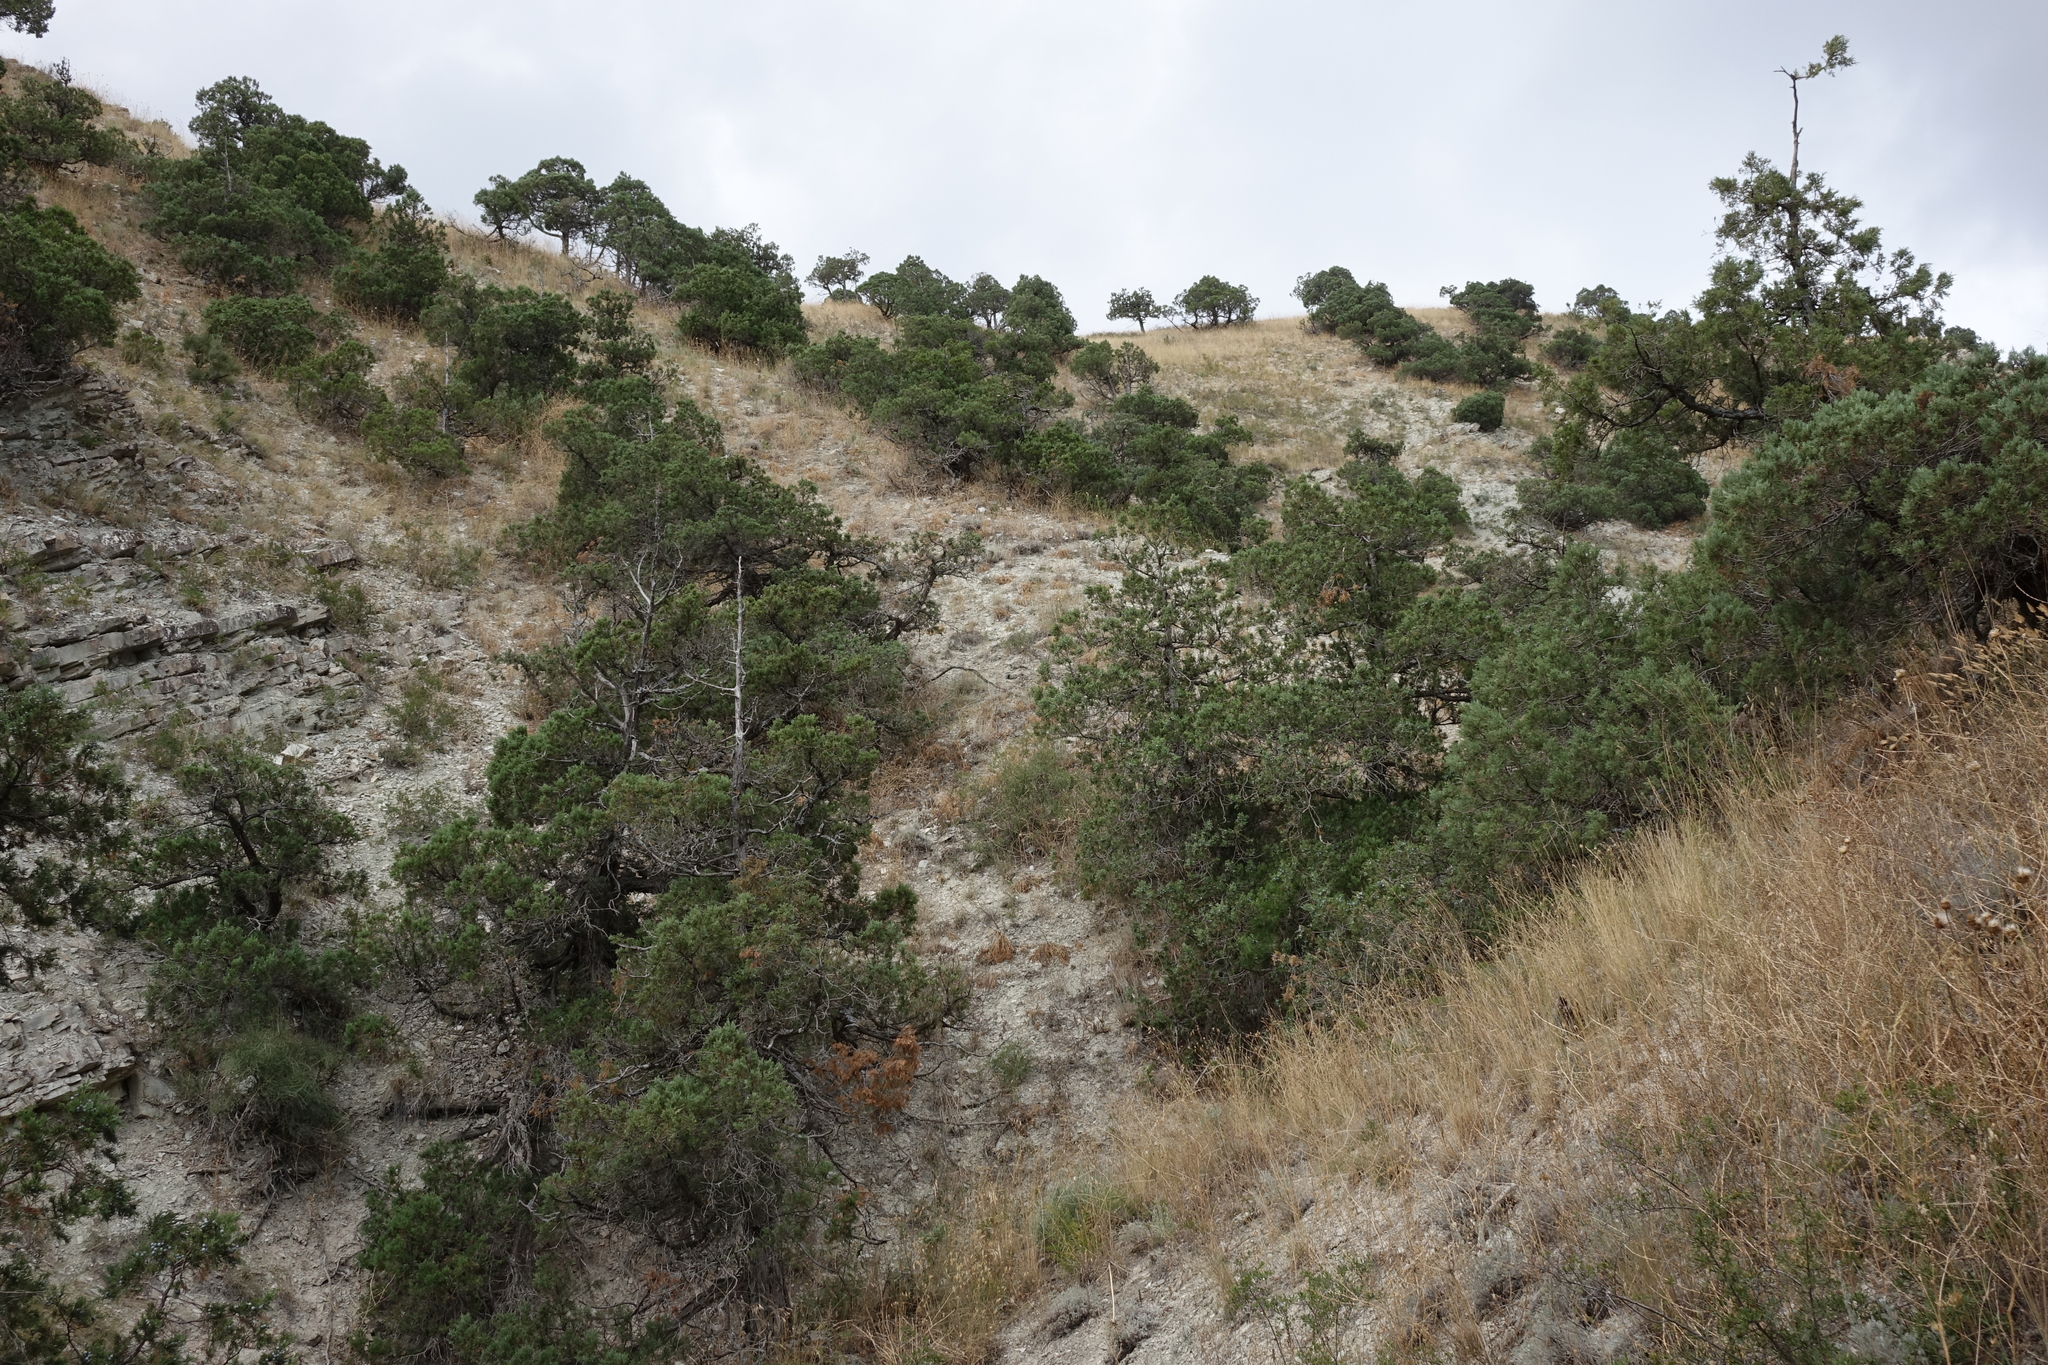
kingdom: Plantae
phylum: Tracheophyta
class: Pinopsida
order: Pinales
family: Cupressaceae
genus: Juniperus
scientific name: Juniperus excelsa
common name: Crimean juniper
